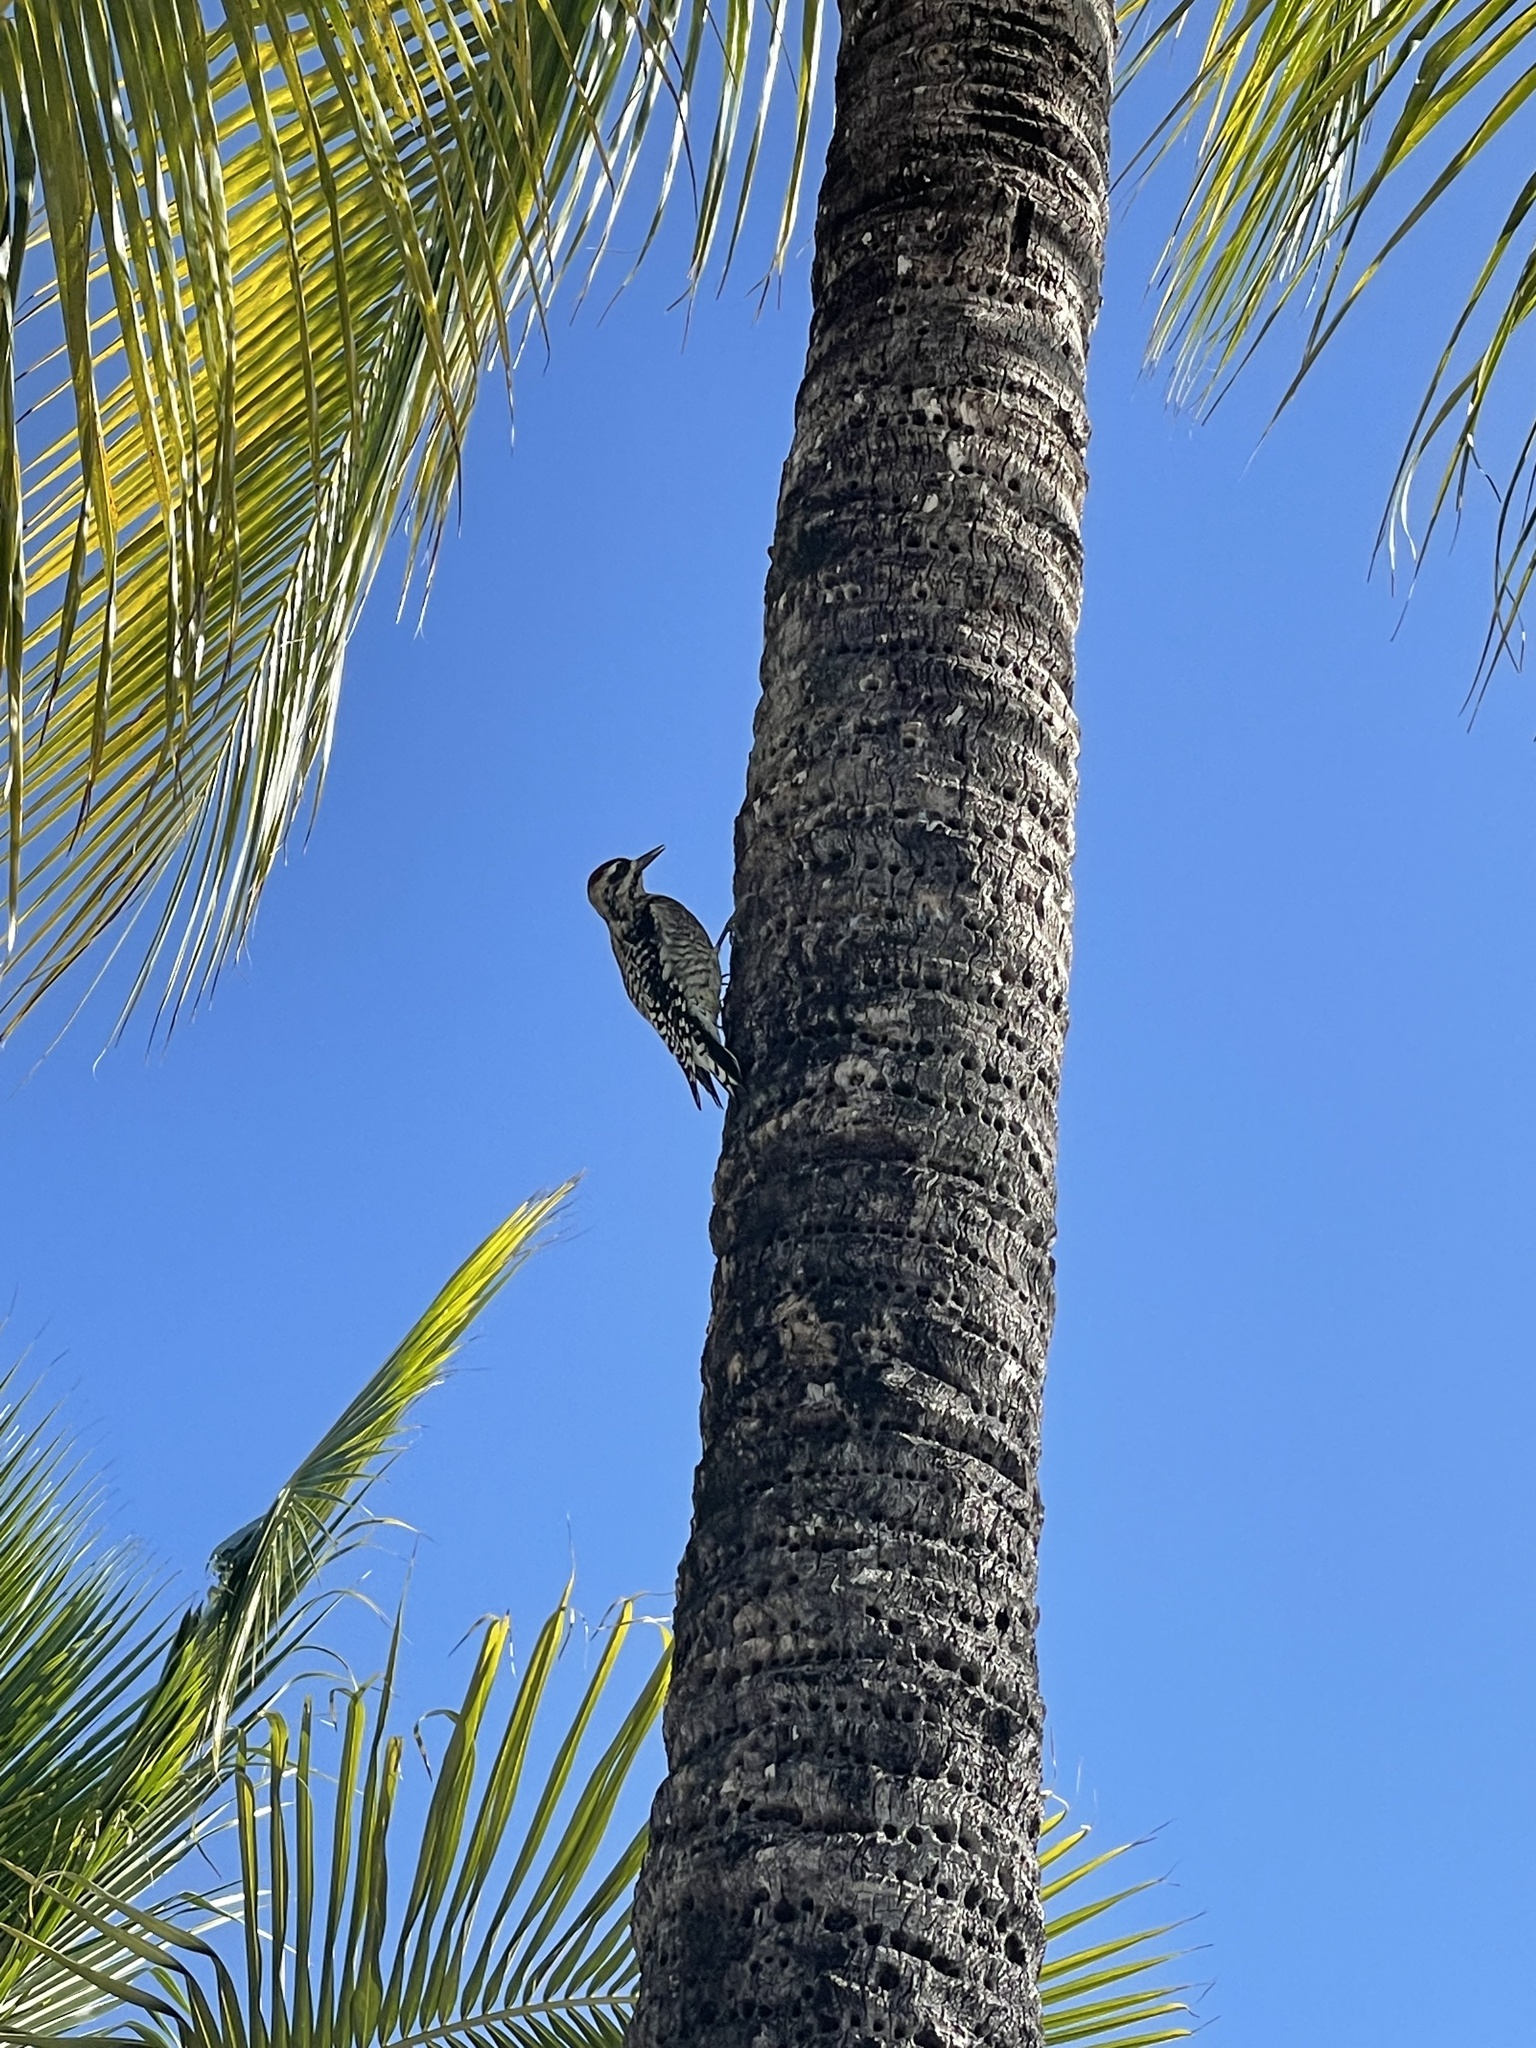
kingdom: Animalia
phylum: Chordata
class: Aves
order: Piciformes
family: Picidae
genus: Sphyrapicus
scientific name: Sphyrapicus varius
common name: Yellow-bellied sapsucker
